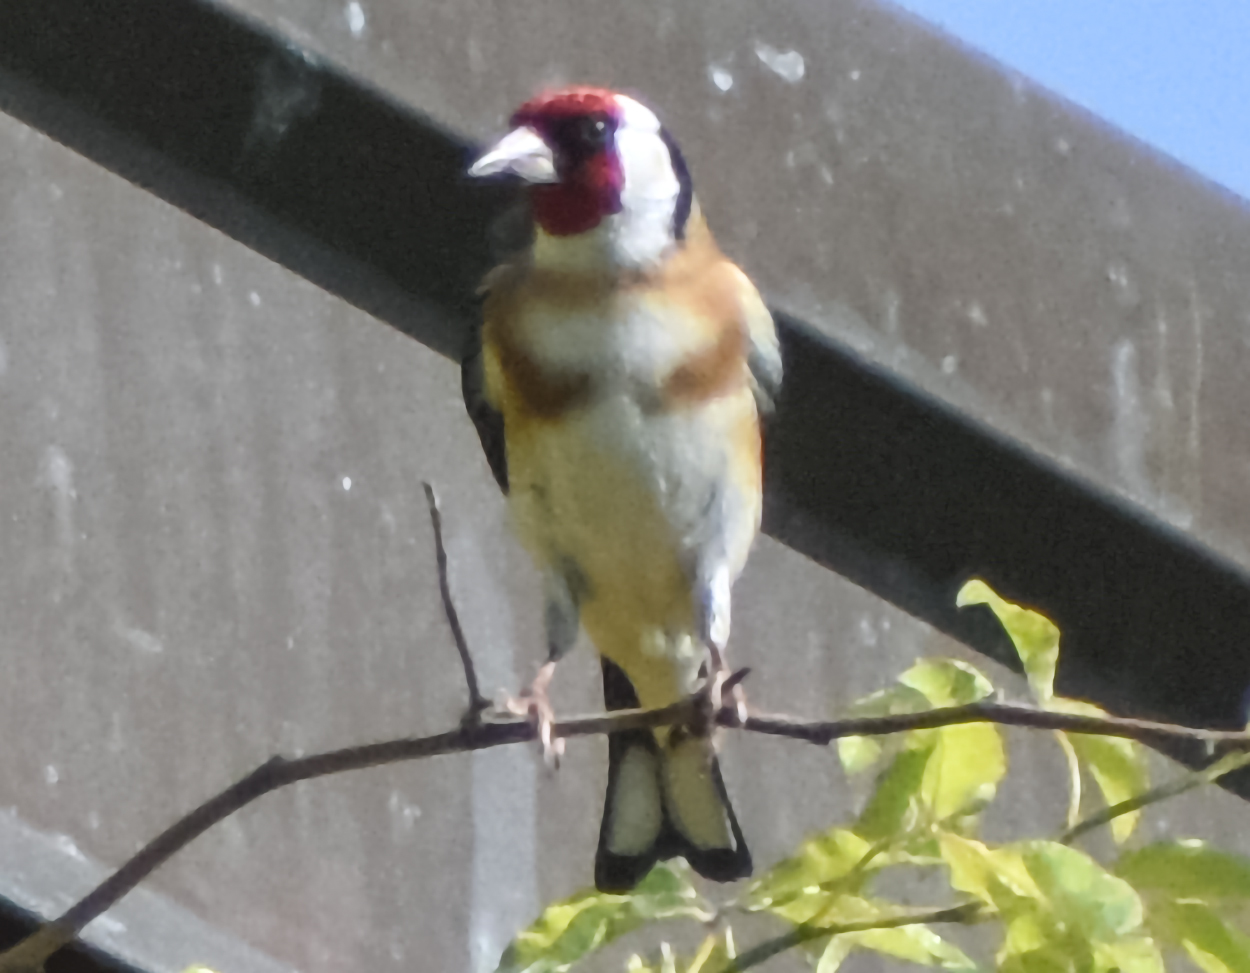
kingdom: Animalia
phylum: Chordata
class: Aves
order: Passeriformes
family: Fringillidae
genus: Carduelis
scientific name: Carduelis carduelis
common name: European goldfinch
